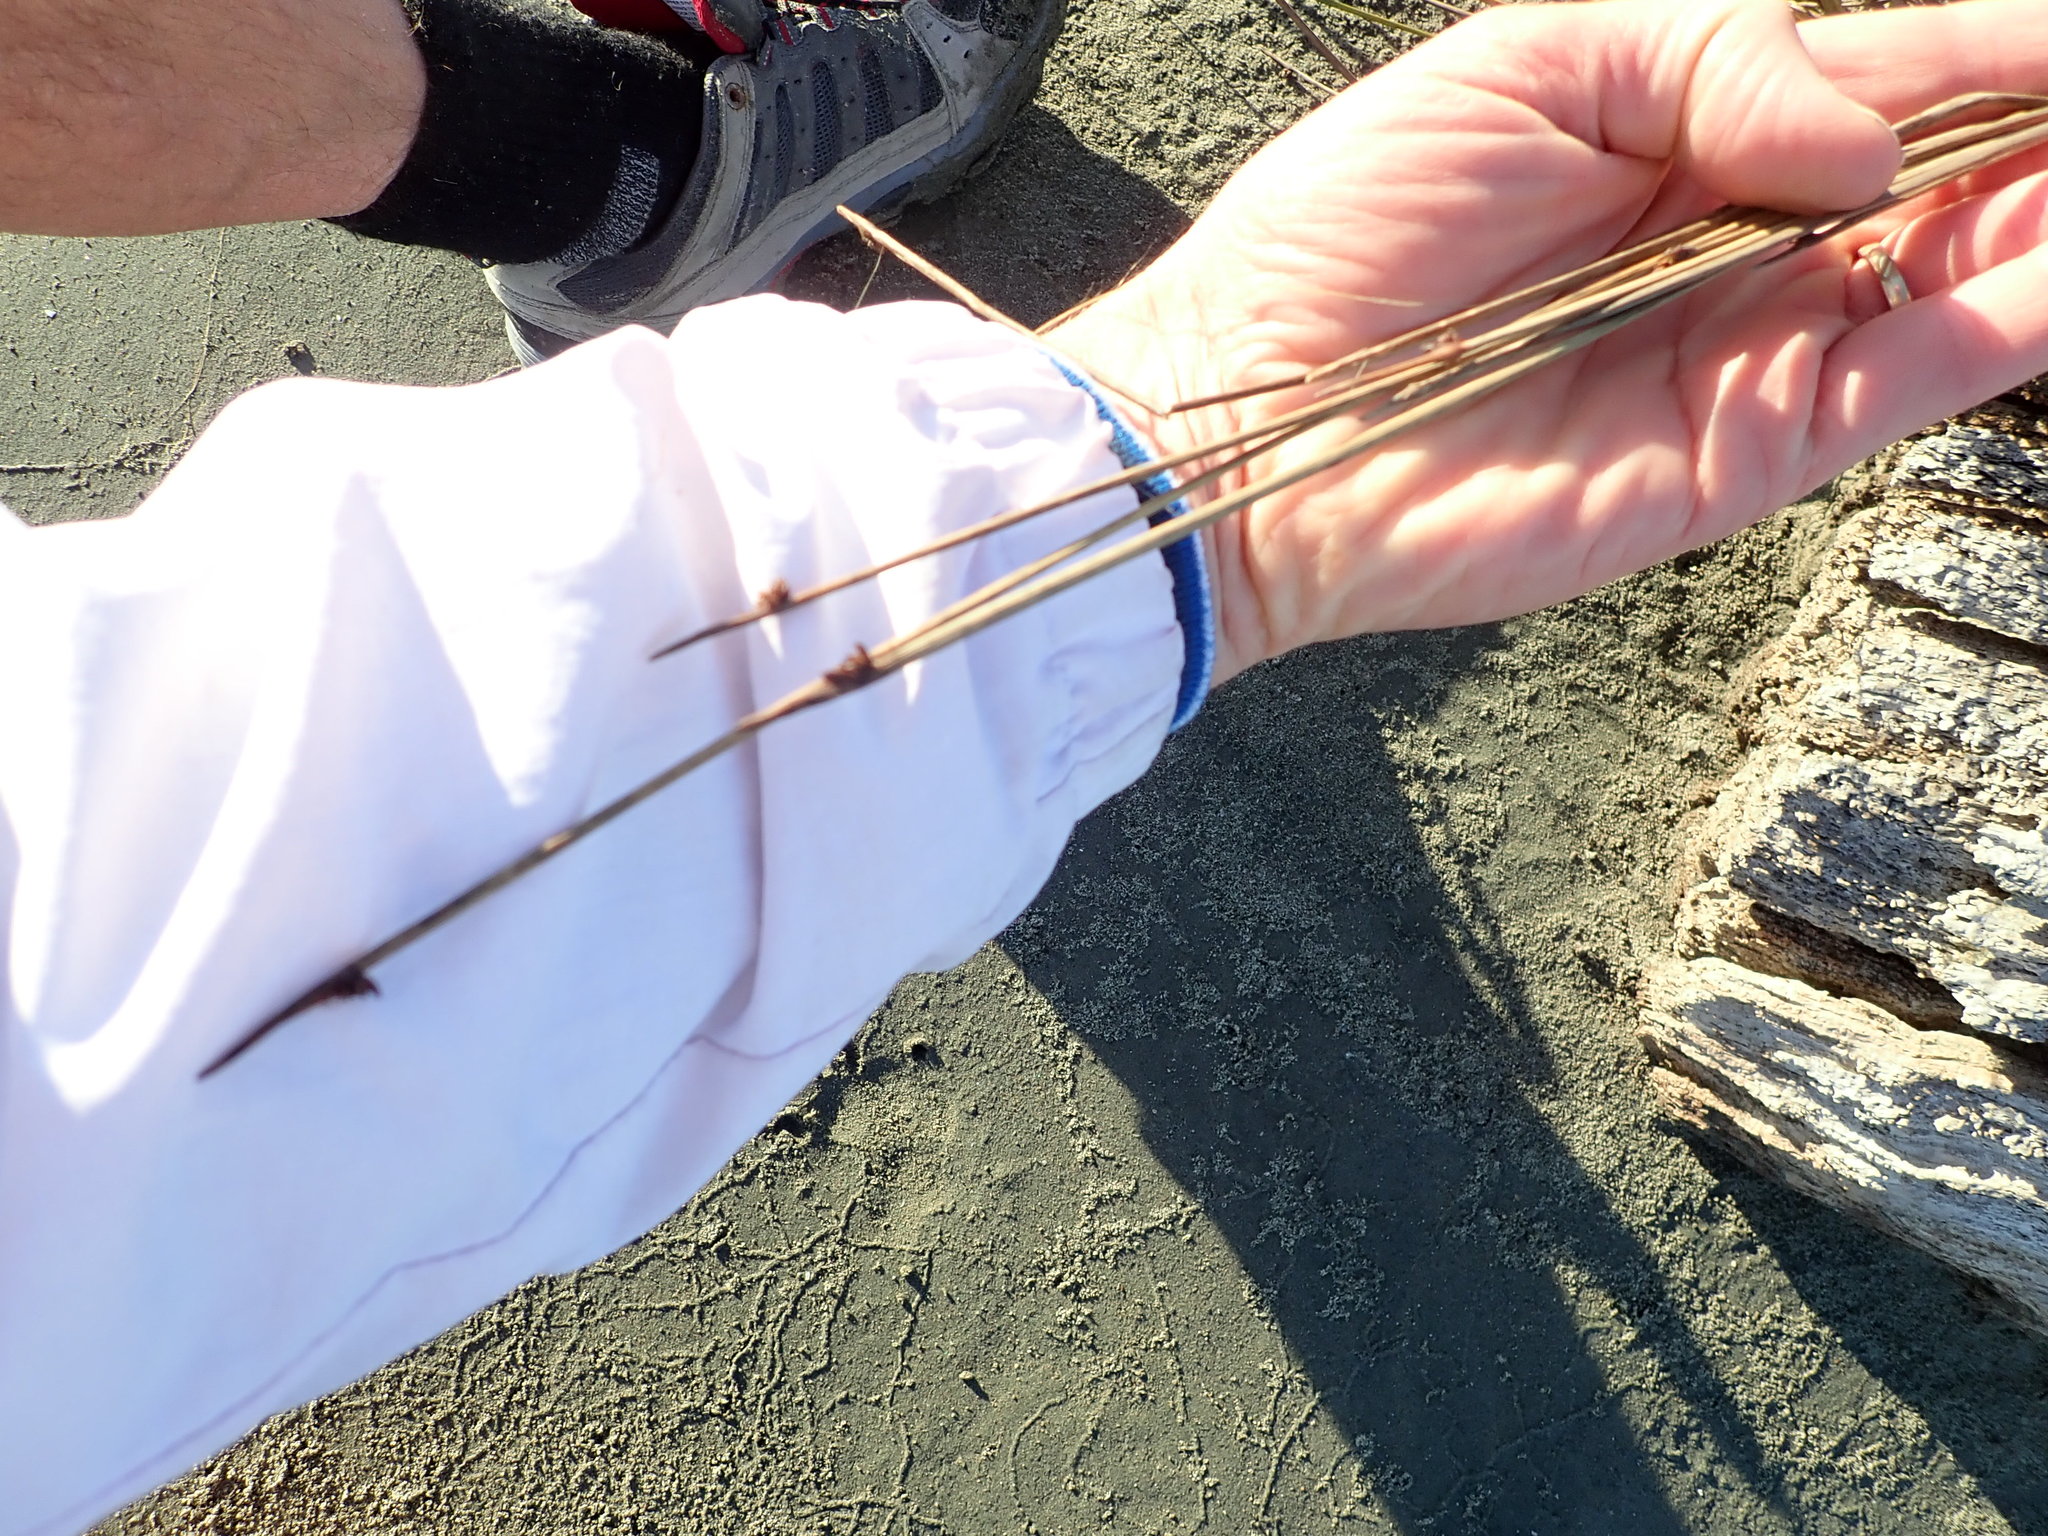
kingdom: Plantae
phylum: Tracheophyta
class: Liliopsida
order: Poales
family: Cyperaceae
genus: Ficinia
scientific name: Ficinia nodosa
